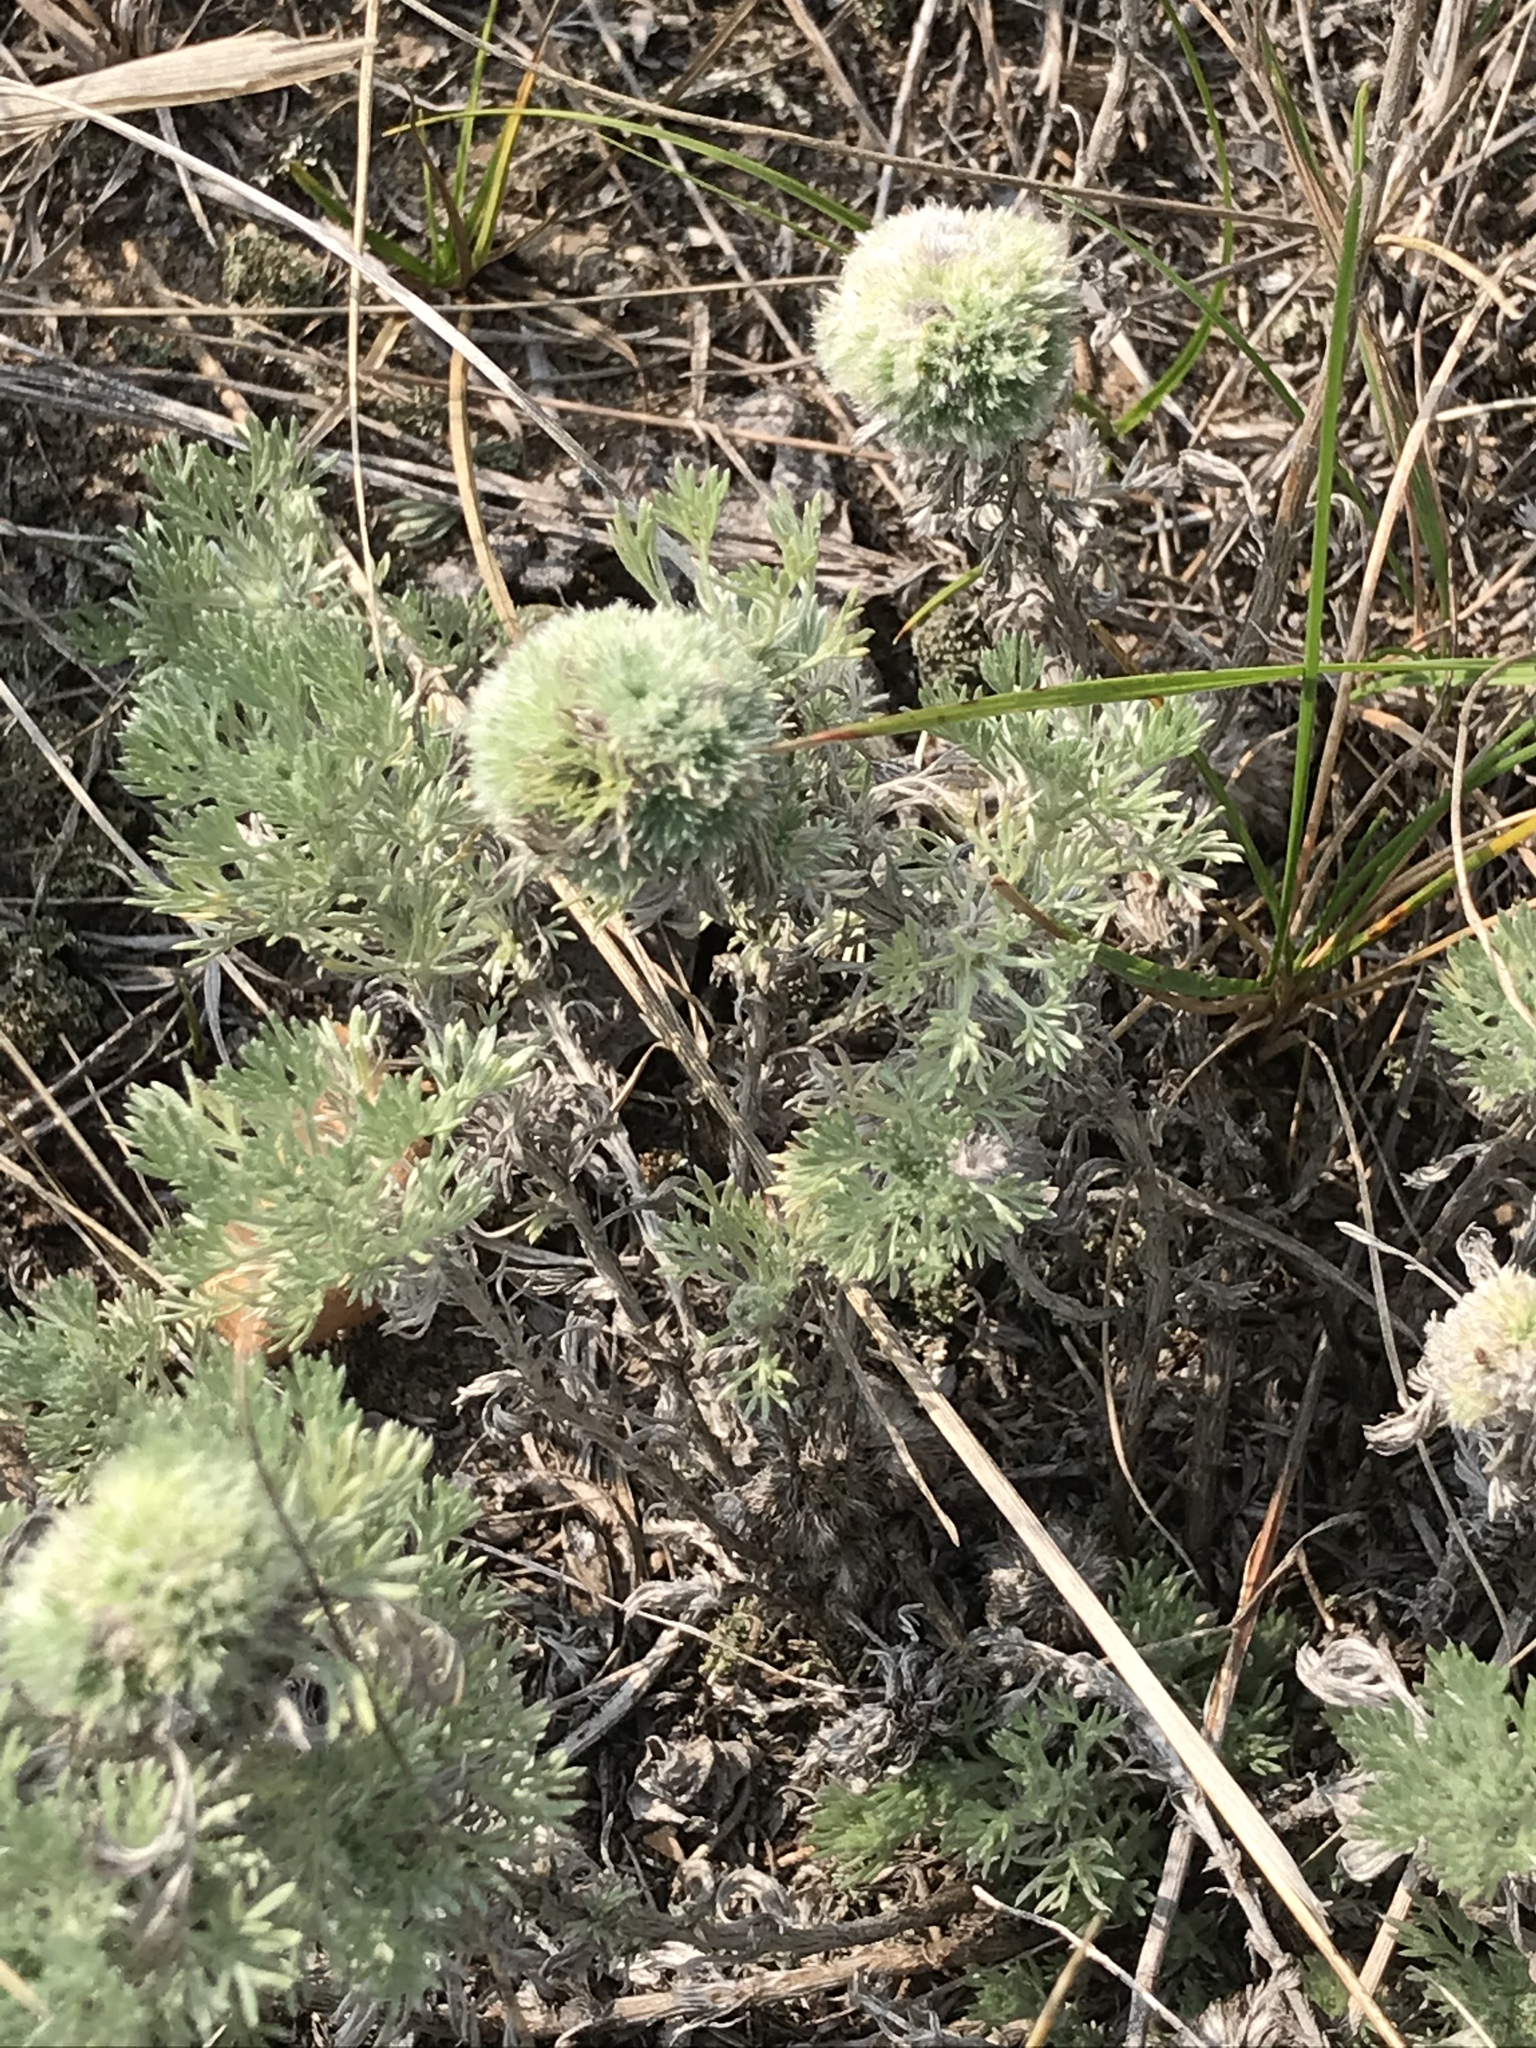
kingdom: Plantae
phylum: Tracheophyta
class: Magnoliopsida
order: Asterales
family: Asteraceae
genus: Artemisia
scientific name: Artemisia frigida
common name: Prairie sagewort
